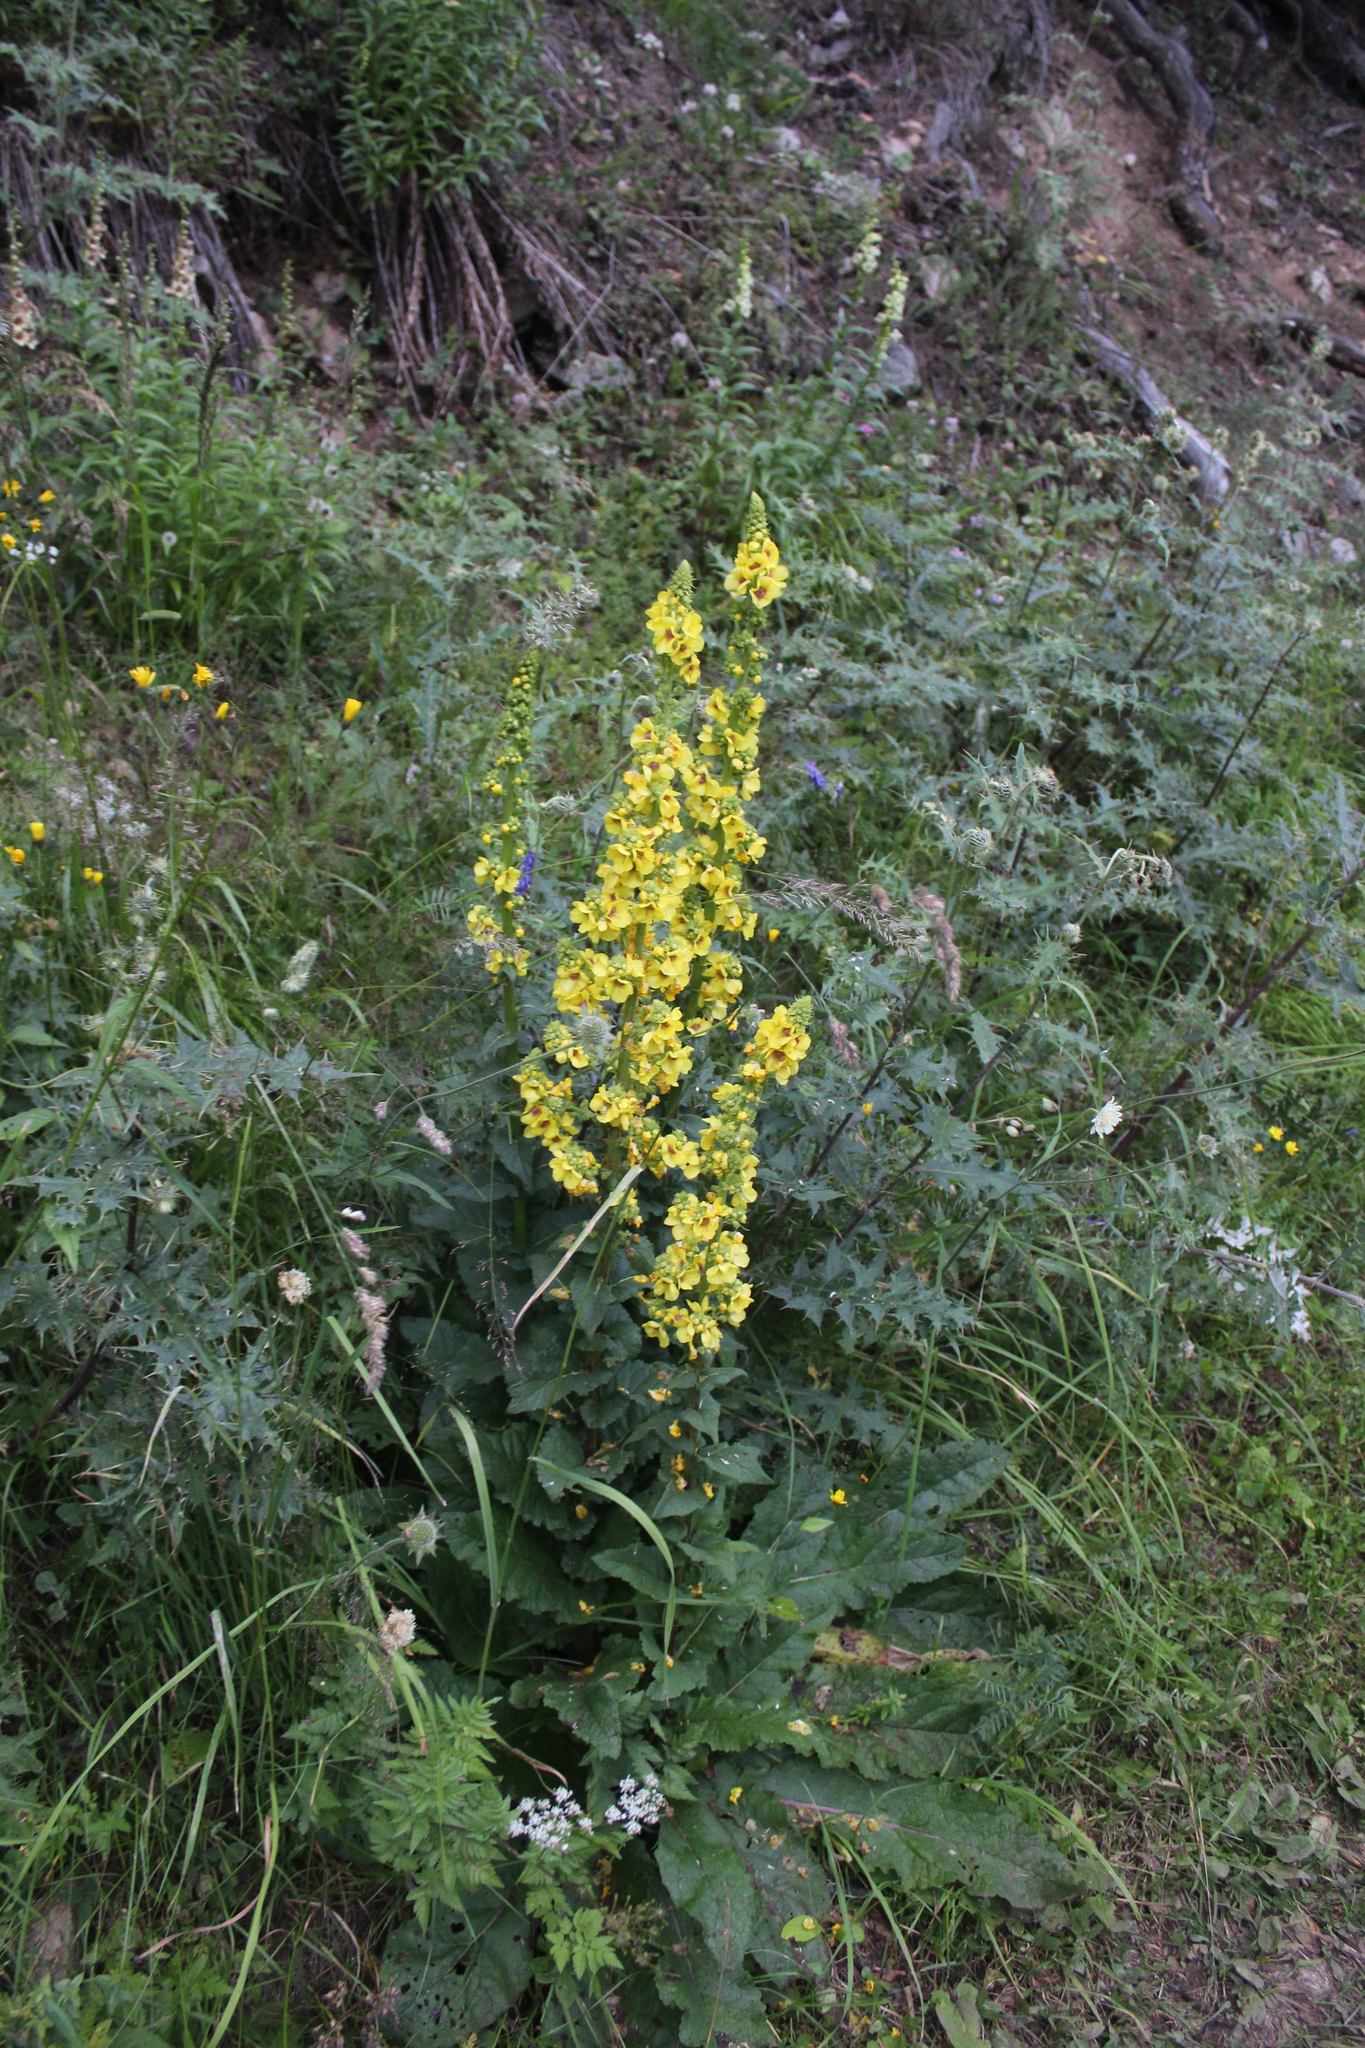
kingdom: Plantae
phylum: Tracheophyta
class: Magnoliopsida
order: Lamiales
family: Scrophulariaceae
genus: Verbascum
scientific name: Verbascum pyramidatum
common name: Caucasian mullein
